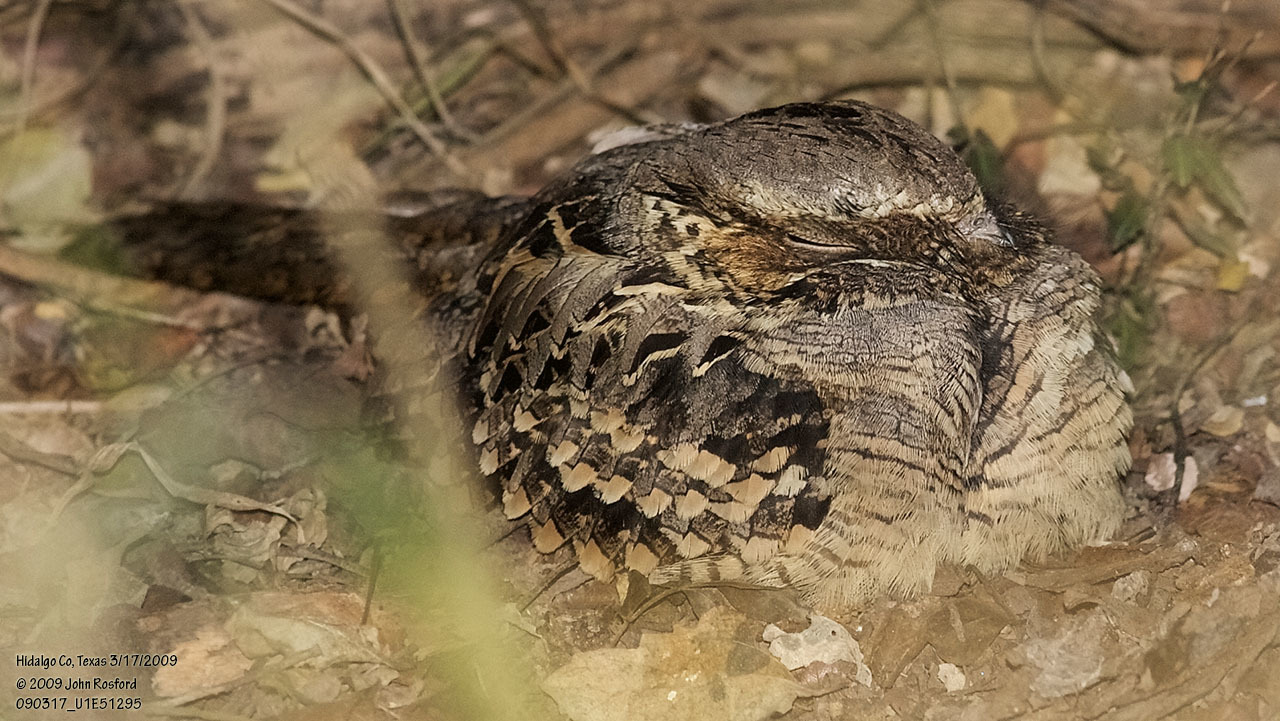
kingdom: Animalia
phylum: Chordata
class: Aves
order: Caprimulgiformes
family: Caprimulgidae
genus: Nyctidromus
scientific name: Nyctidromus albicollis
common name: Pauraque
